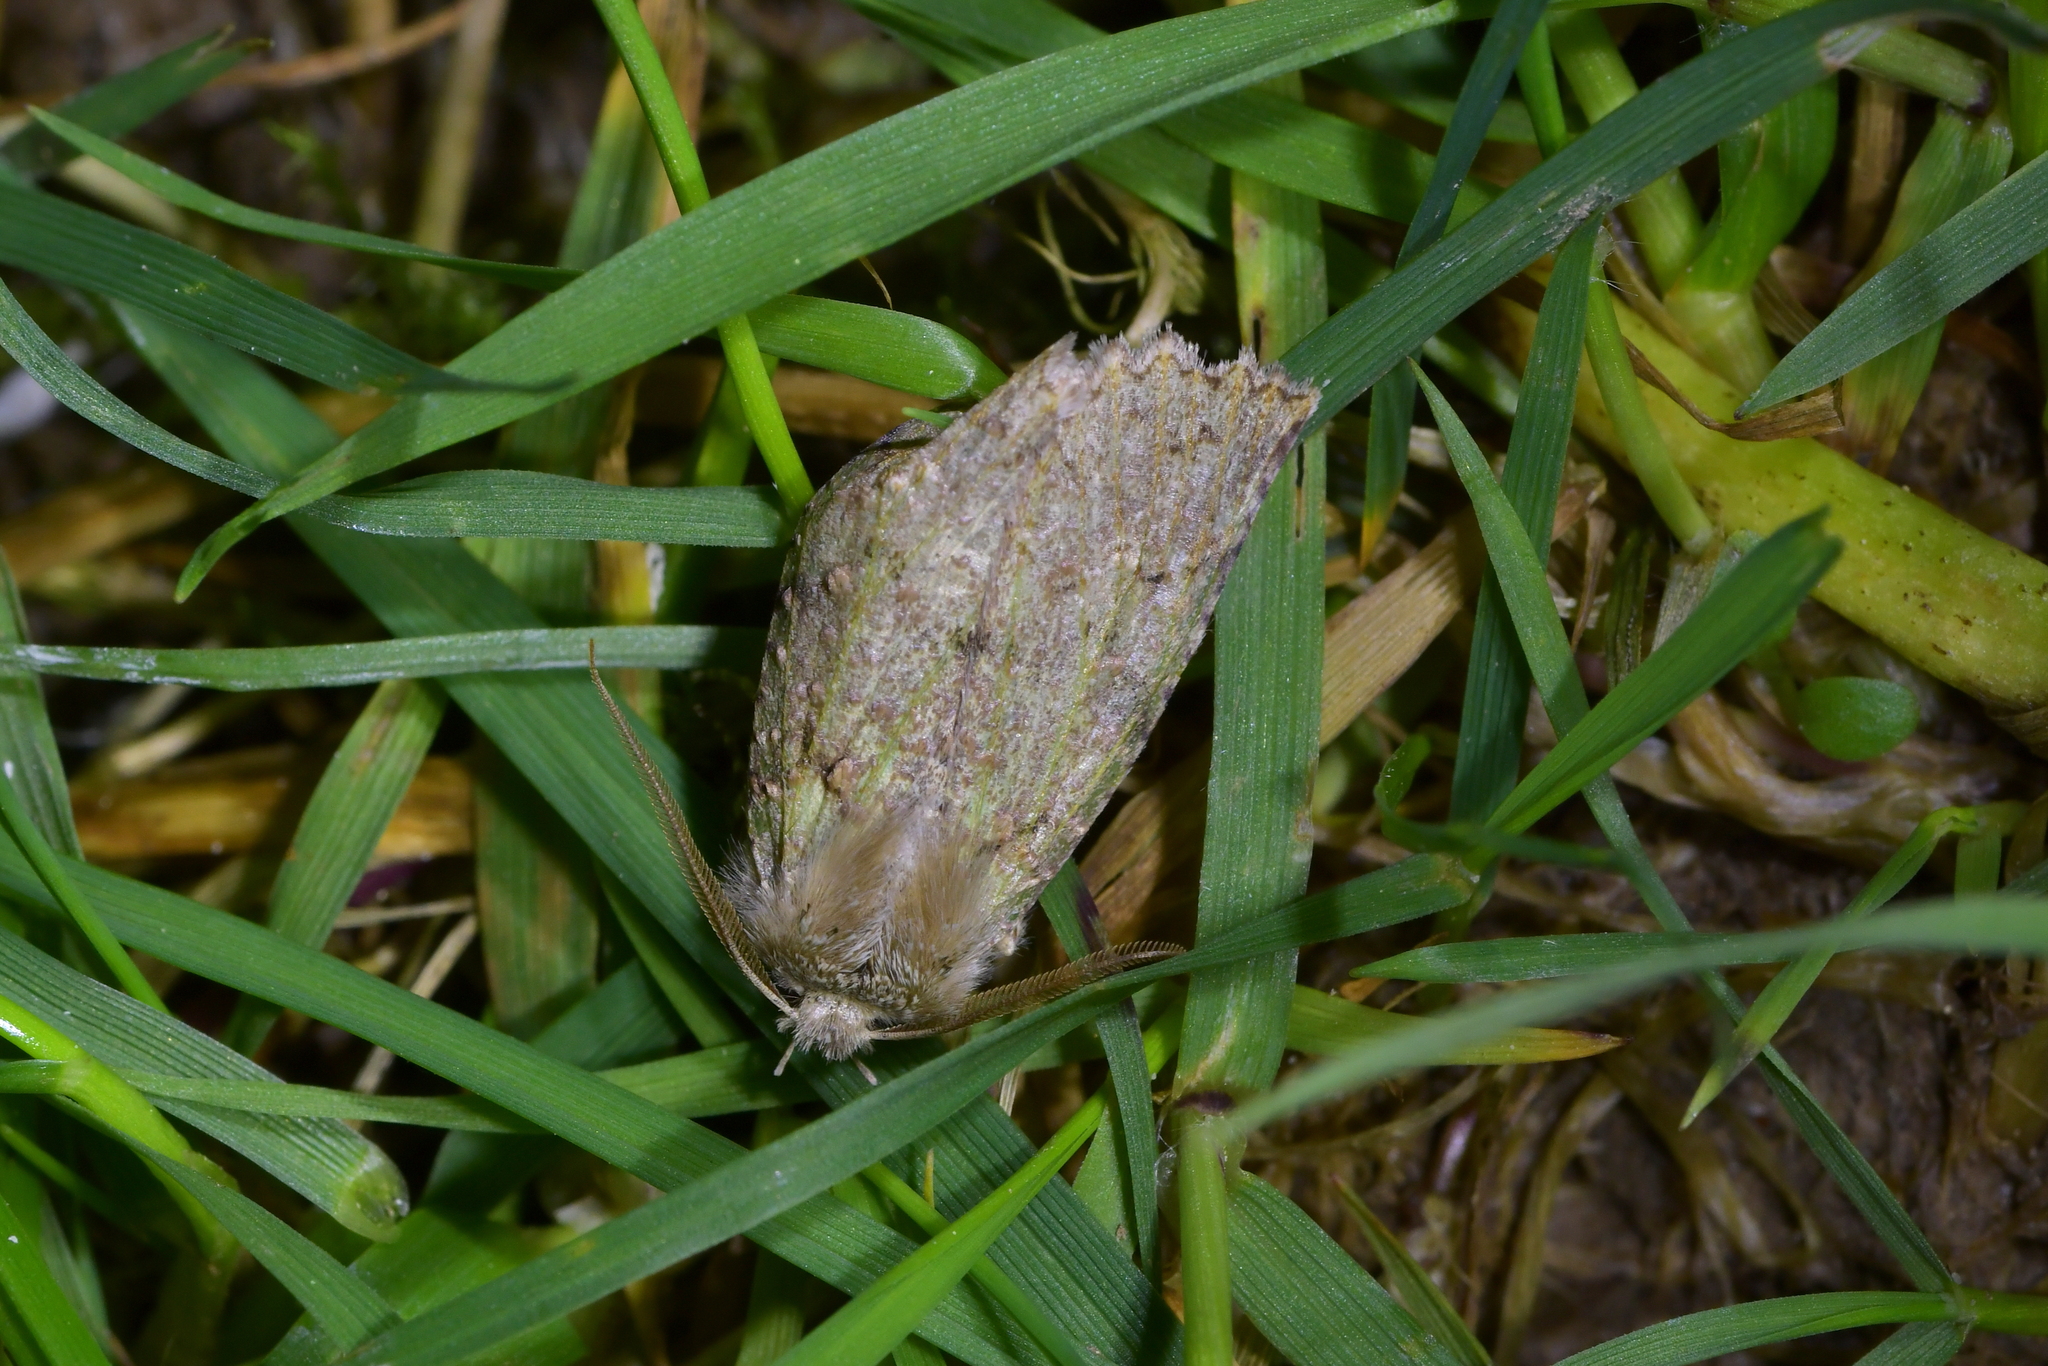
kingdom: Animalia
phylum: Arthropoda
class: Insecta
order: Lepidoptera
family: Geometridae
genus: Declana
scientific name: Declana floccosa
